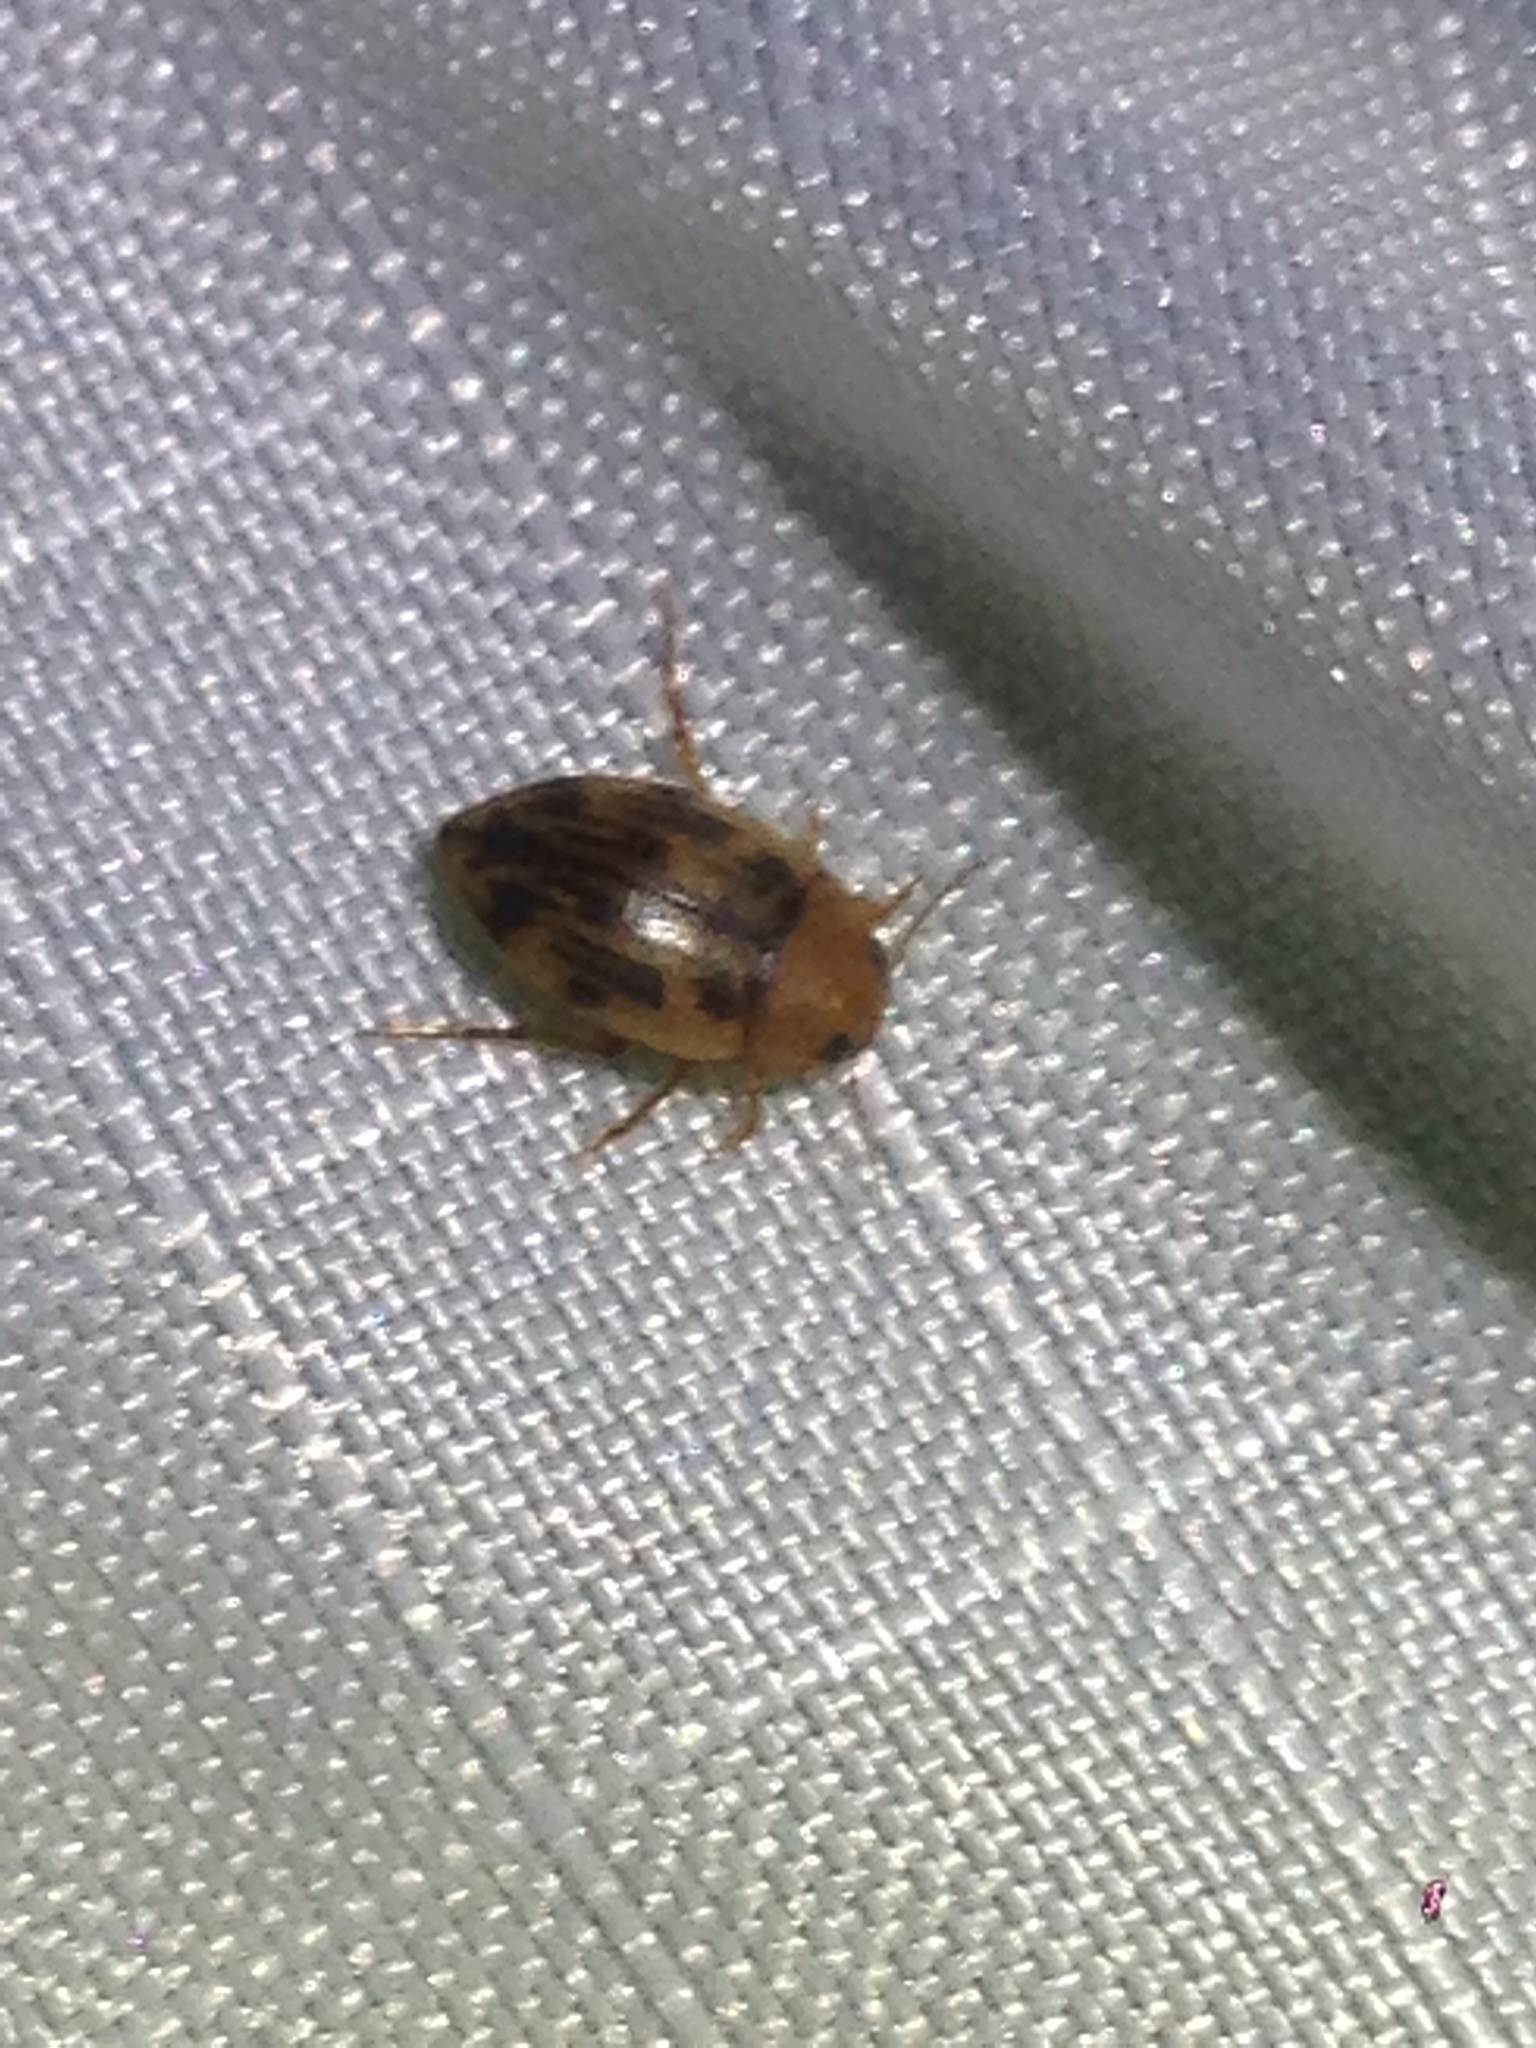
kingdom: Animalia
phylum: Arthropoda
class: Insecta
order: Coleoptera
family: Dytiscidae
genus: Neoporus
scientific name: Neoporus
